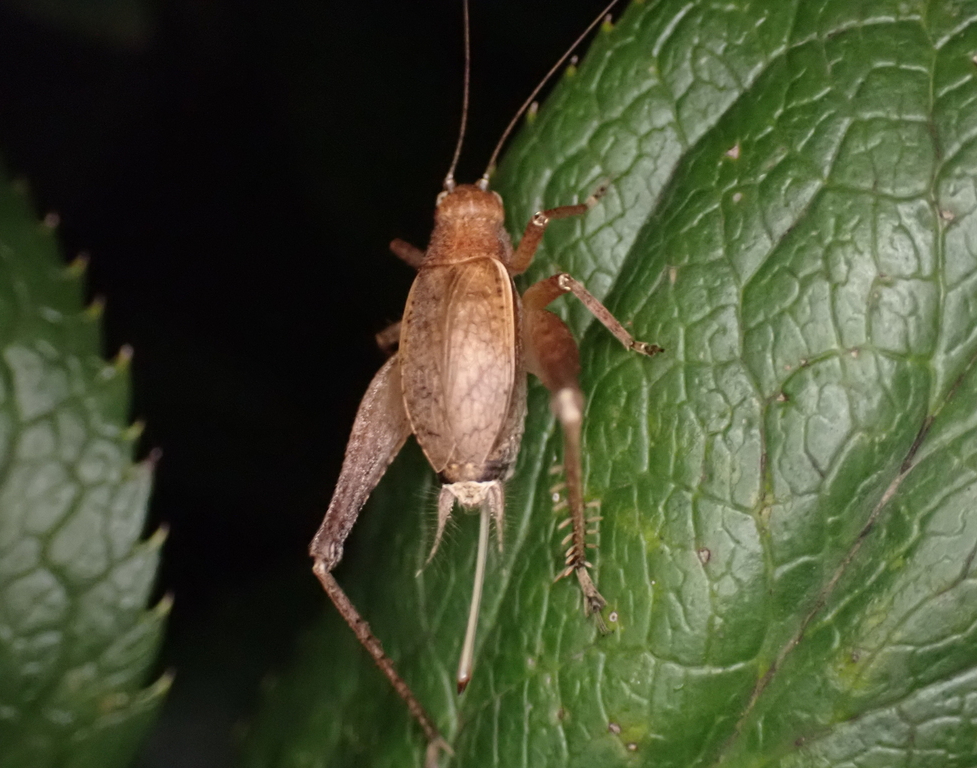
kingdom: Animalia
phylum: Arthropoda
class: Insecta
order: Orthoptera
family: Gryllidae
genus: Hapithus
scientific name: Hapithus agitator
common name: Restless bush cricket
